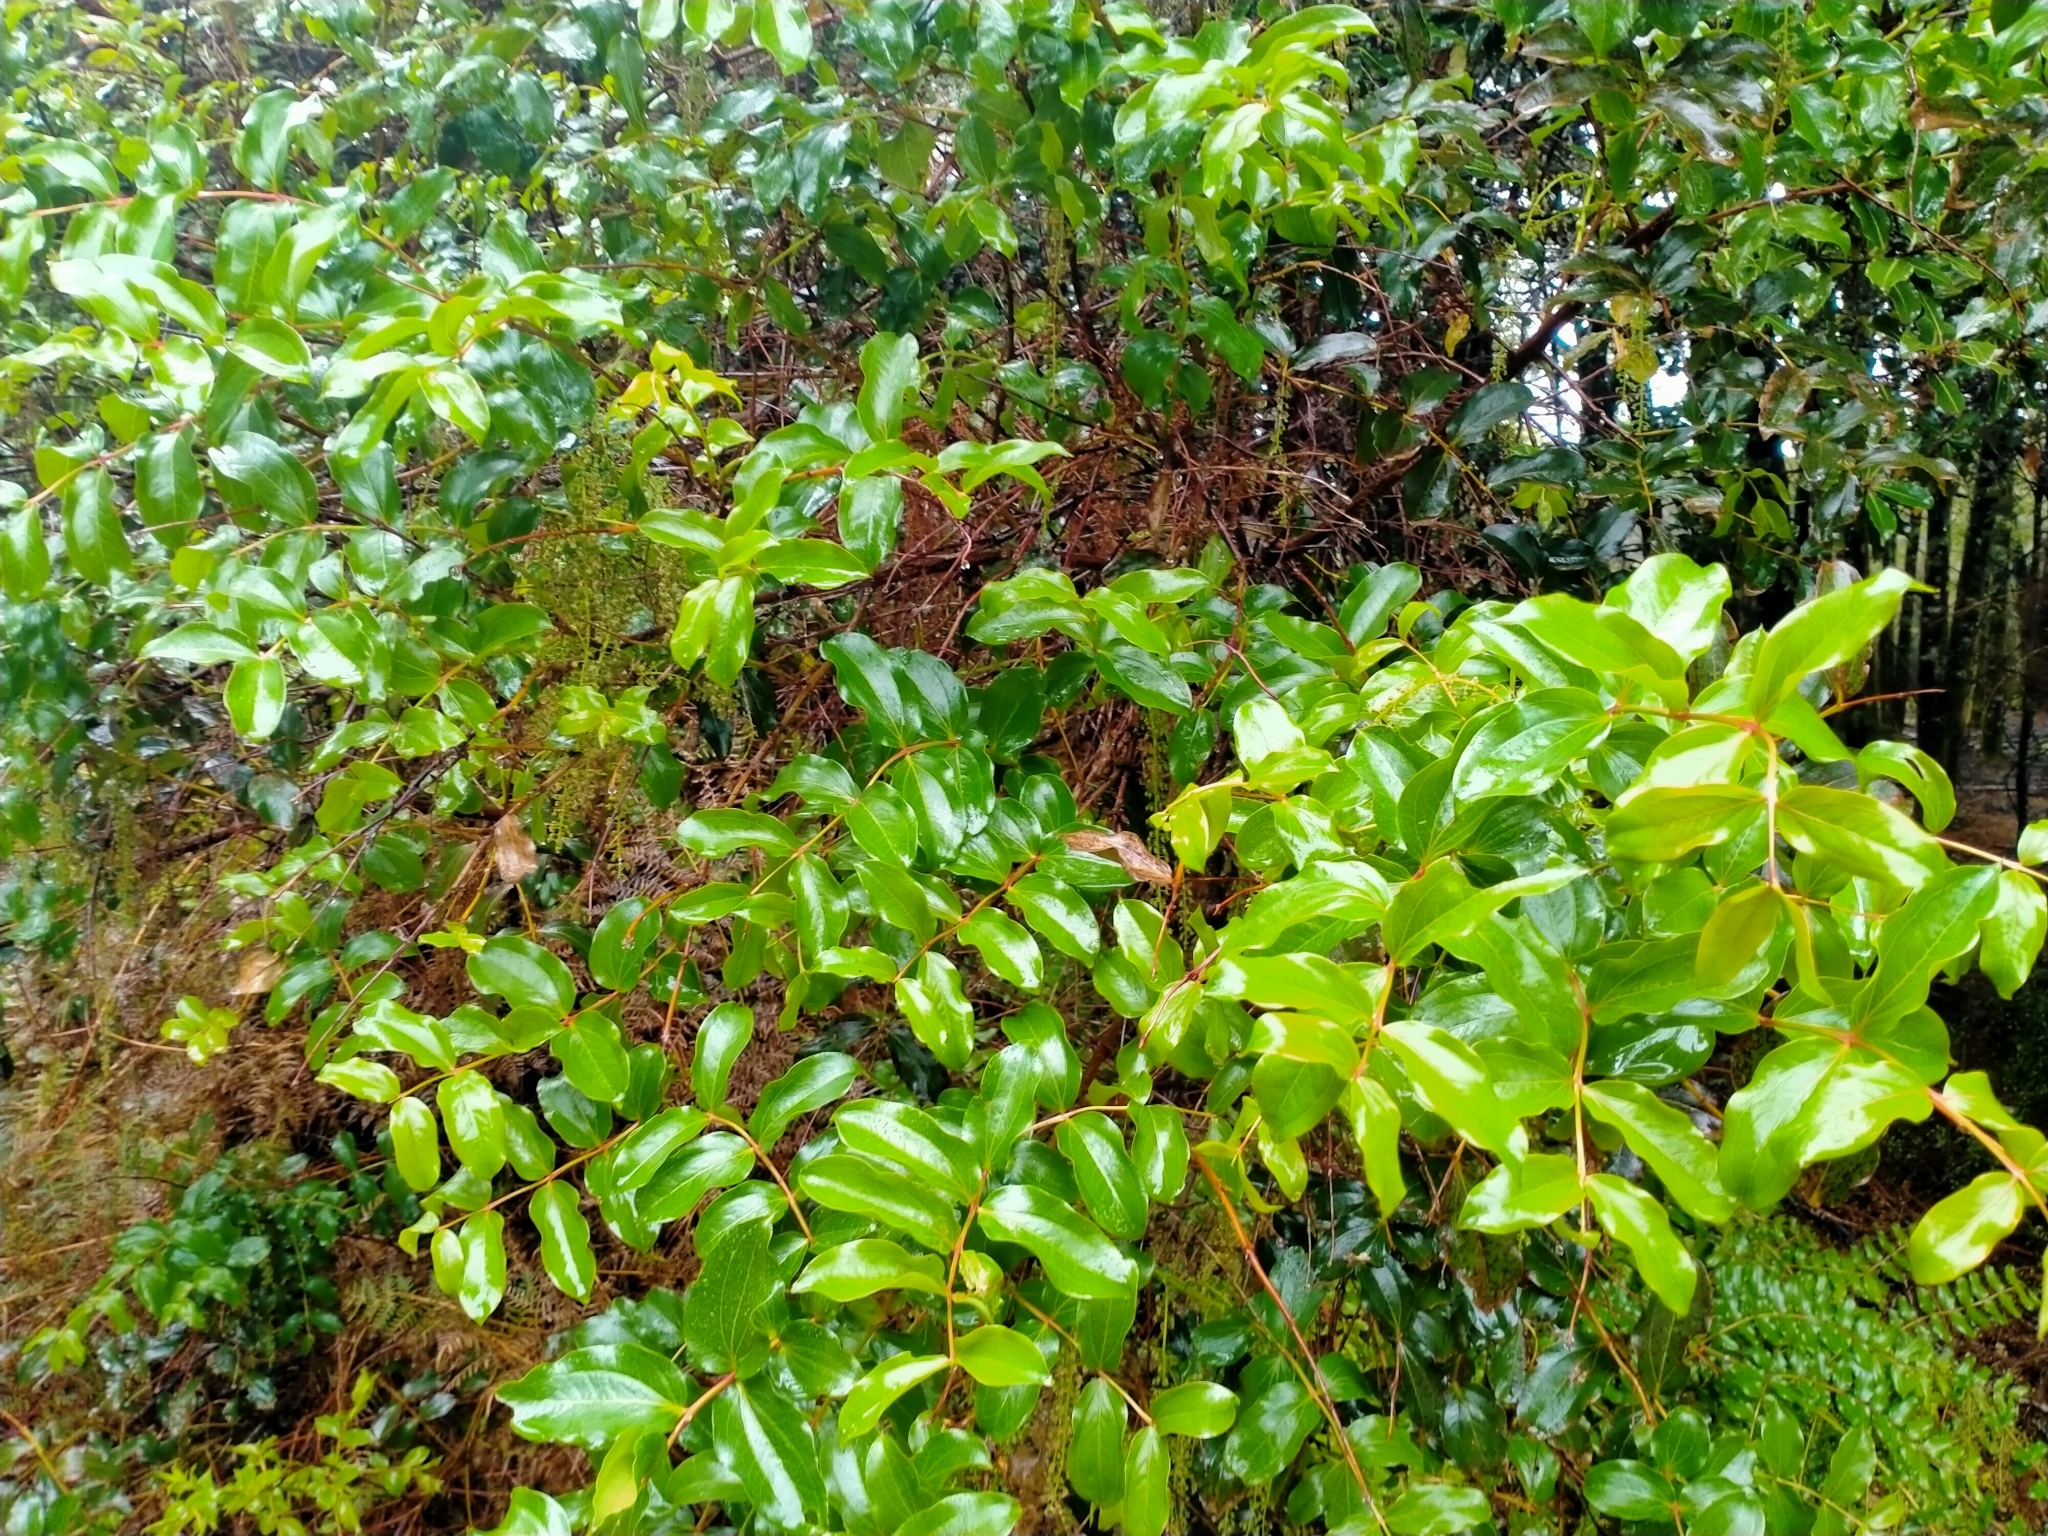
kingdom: Plantae
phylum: Tracheophyta
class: Magnoliopsida
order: Cucurbitales
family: Coriariaceae
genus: Coriaria
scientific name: Coriaria arborea
